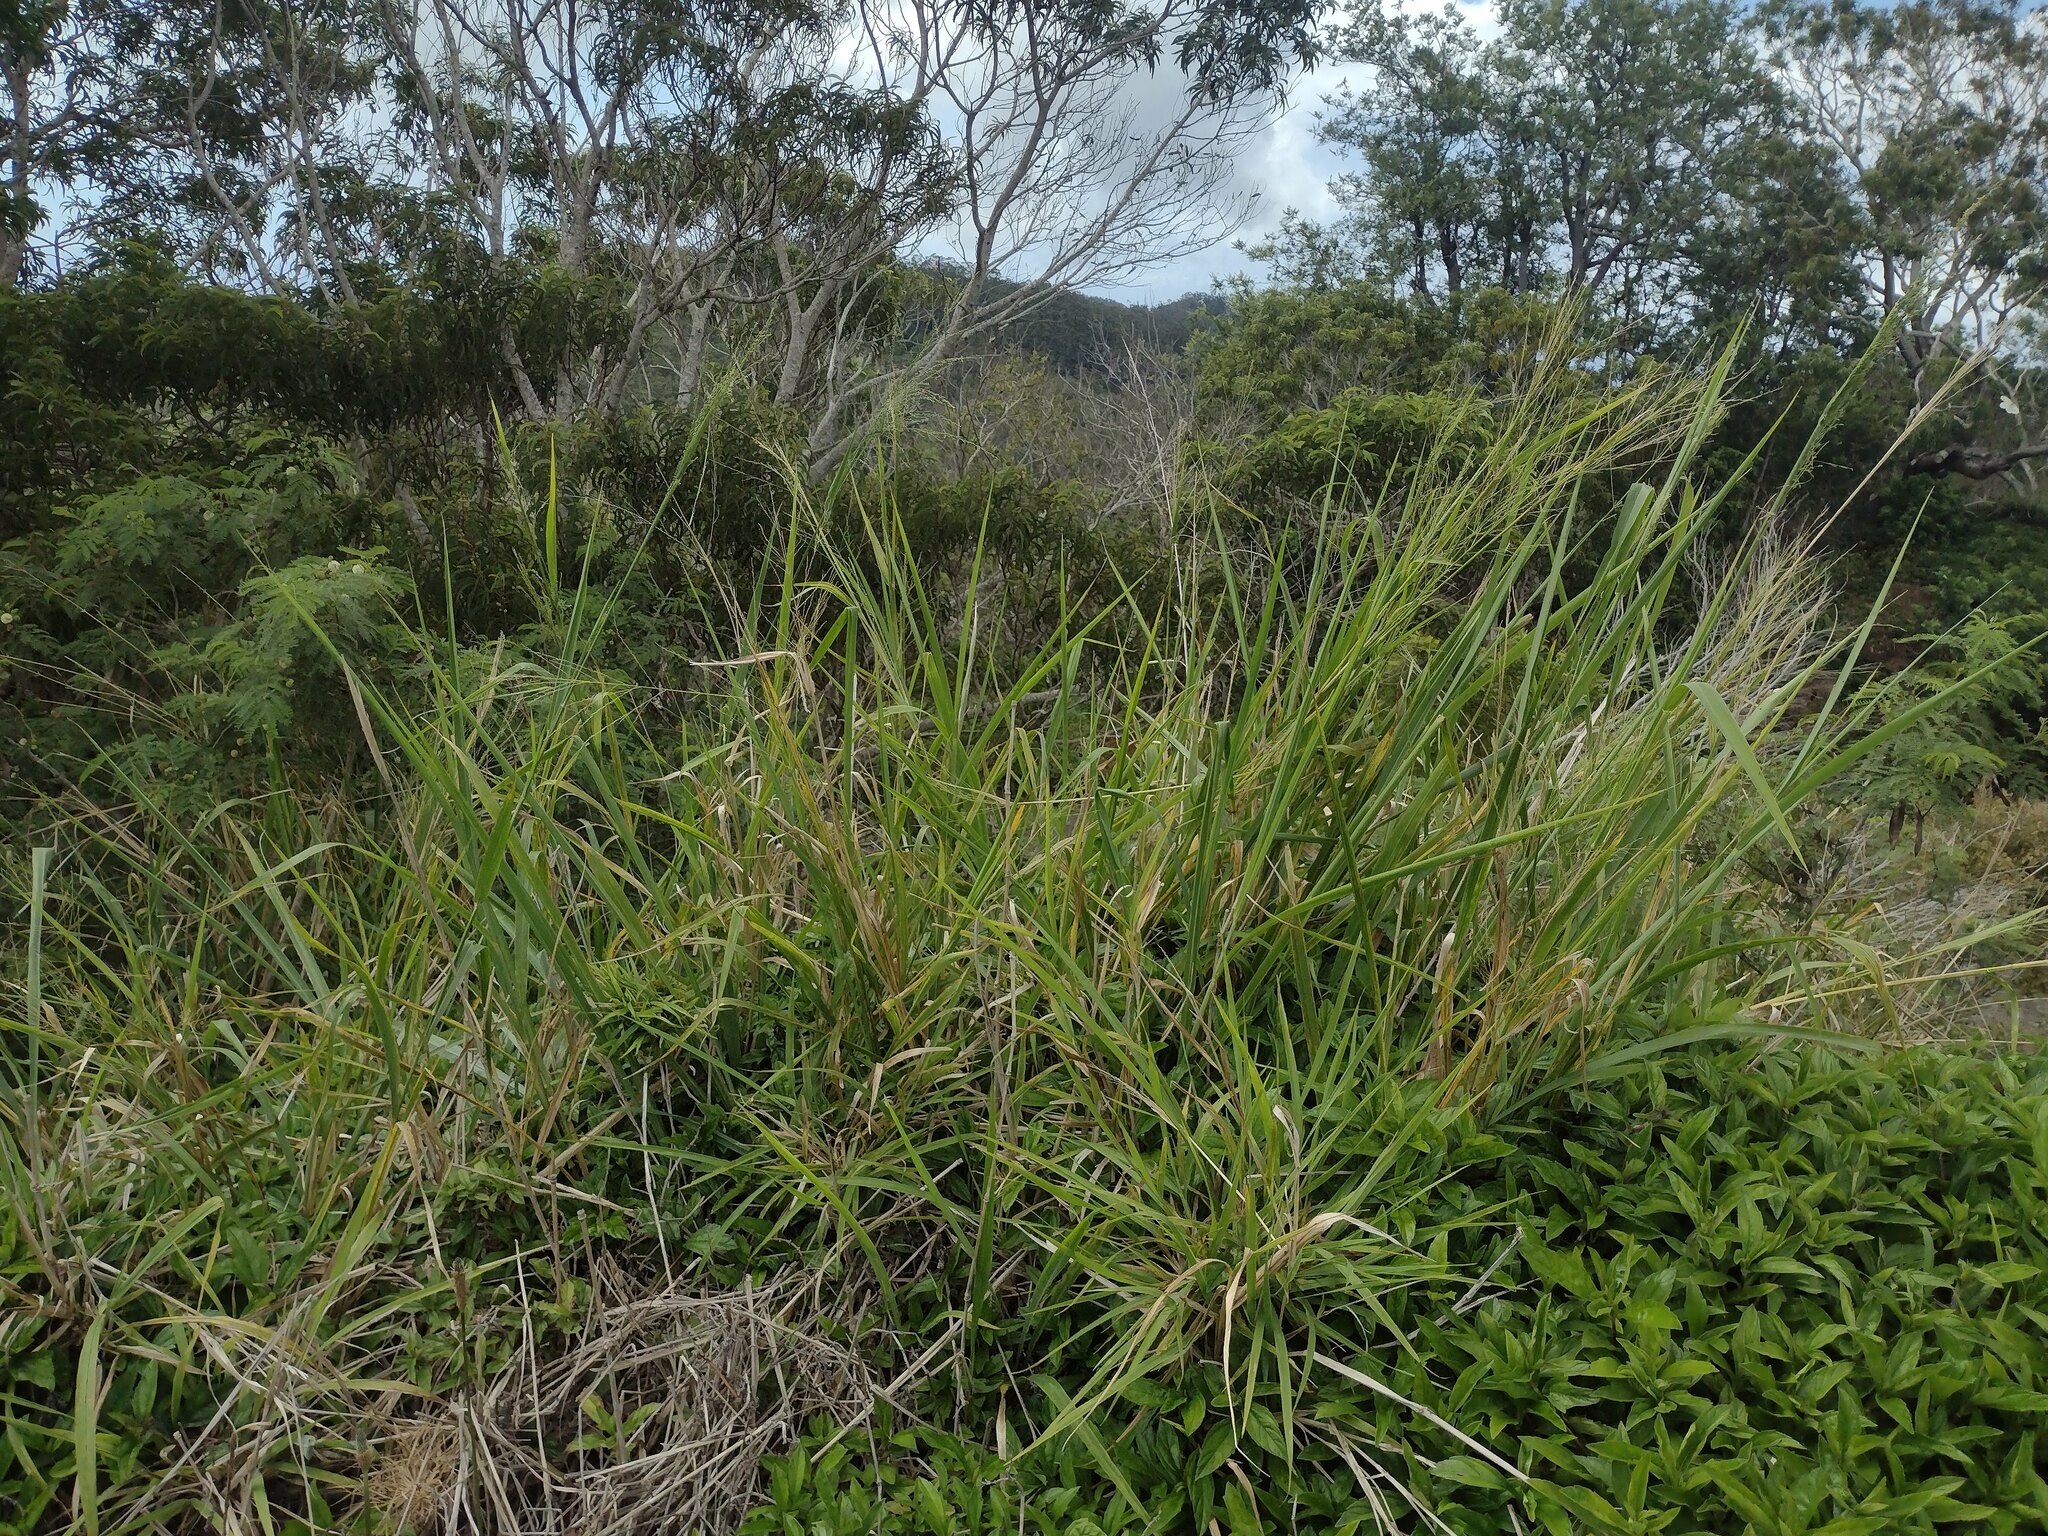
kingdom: Plantae
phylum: Tracheophyta
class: Liliopsida
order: Poales
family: Poaceae
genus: Megathyrsus
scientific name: Megathyrsus maximus
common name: Guineagrass
